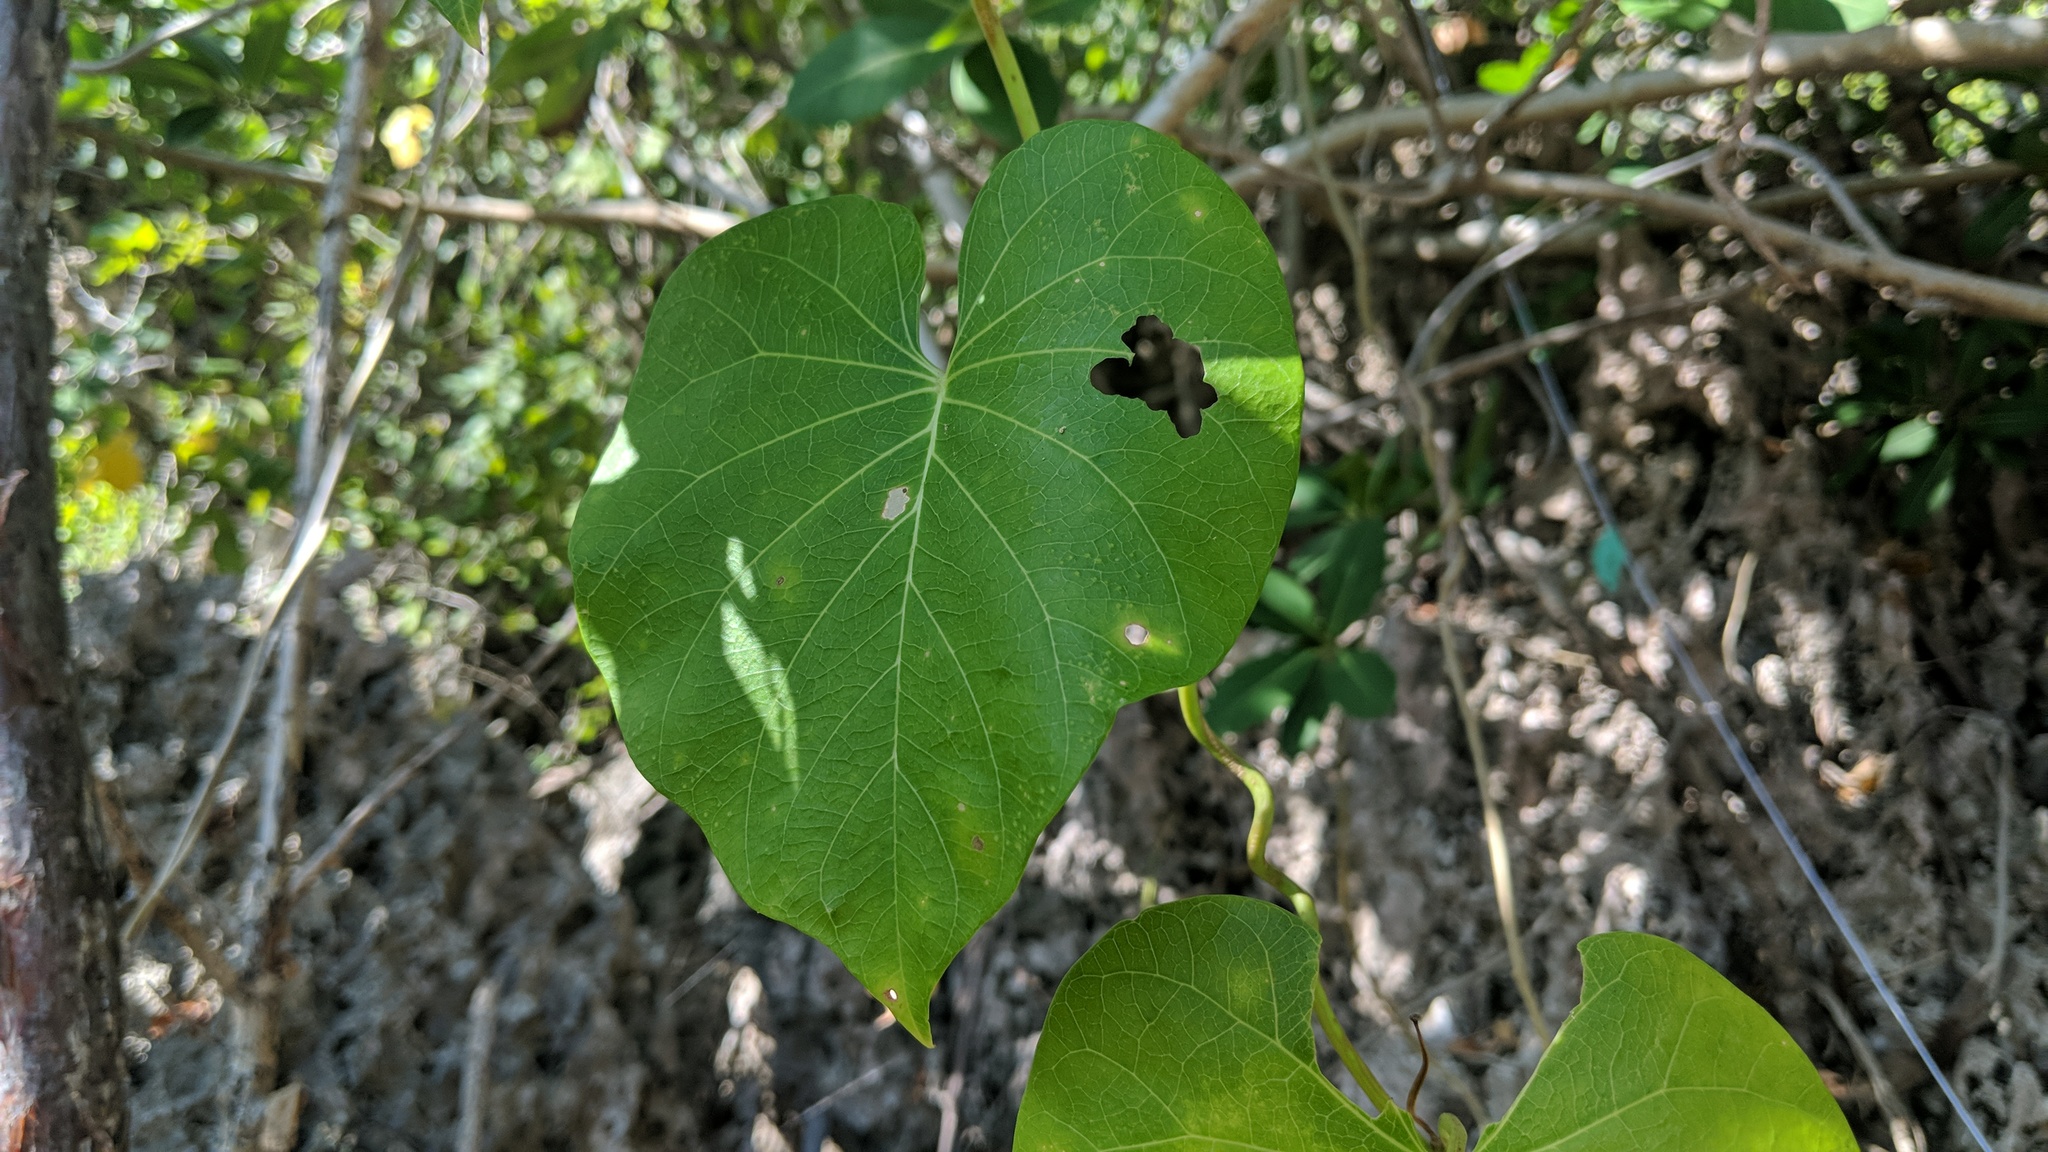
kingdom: Plantae
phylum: Tracheophyta
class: Magnoliopsida
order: Solanales
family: Convolvulaceae
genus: Ipomoea
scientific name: Ipomoea violacea
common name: Beach moonflower
